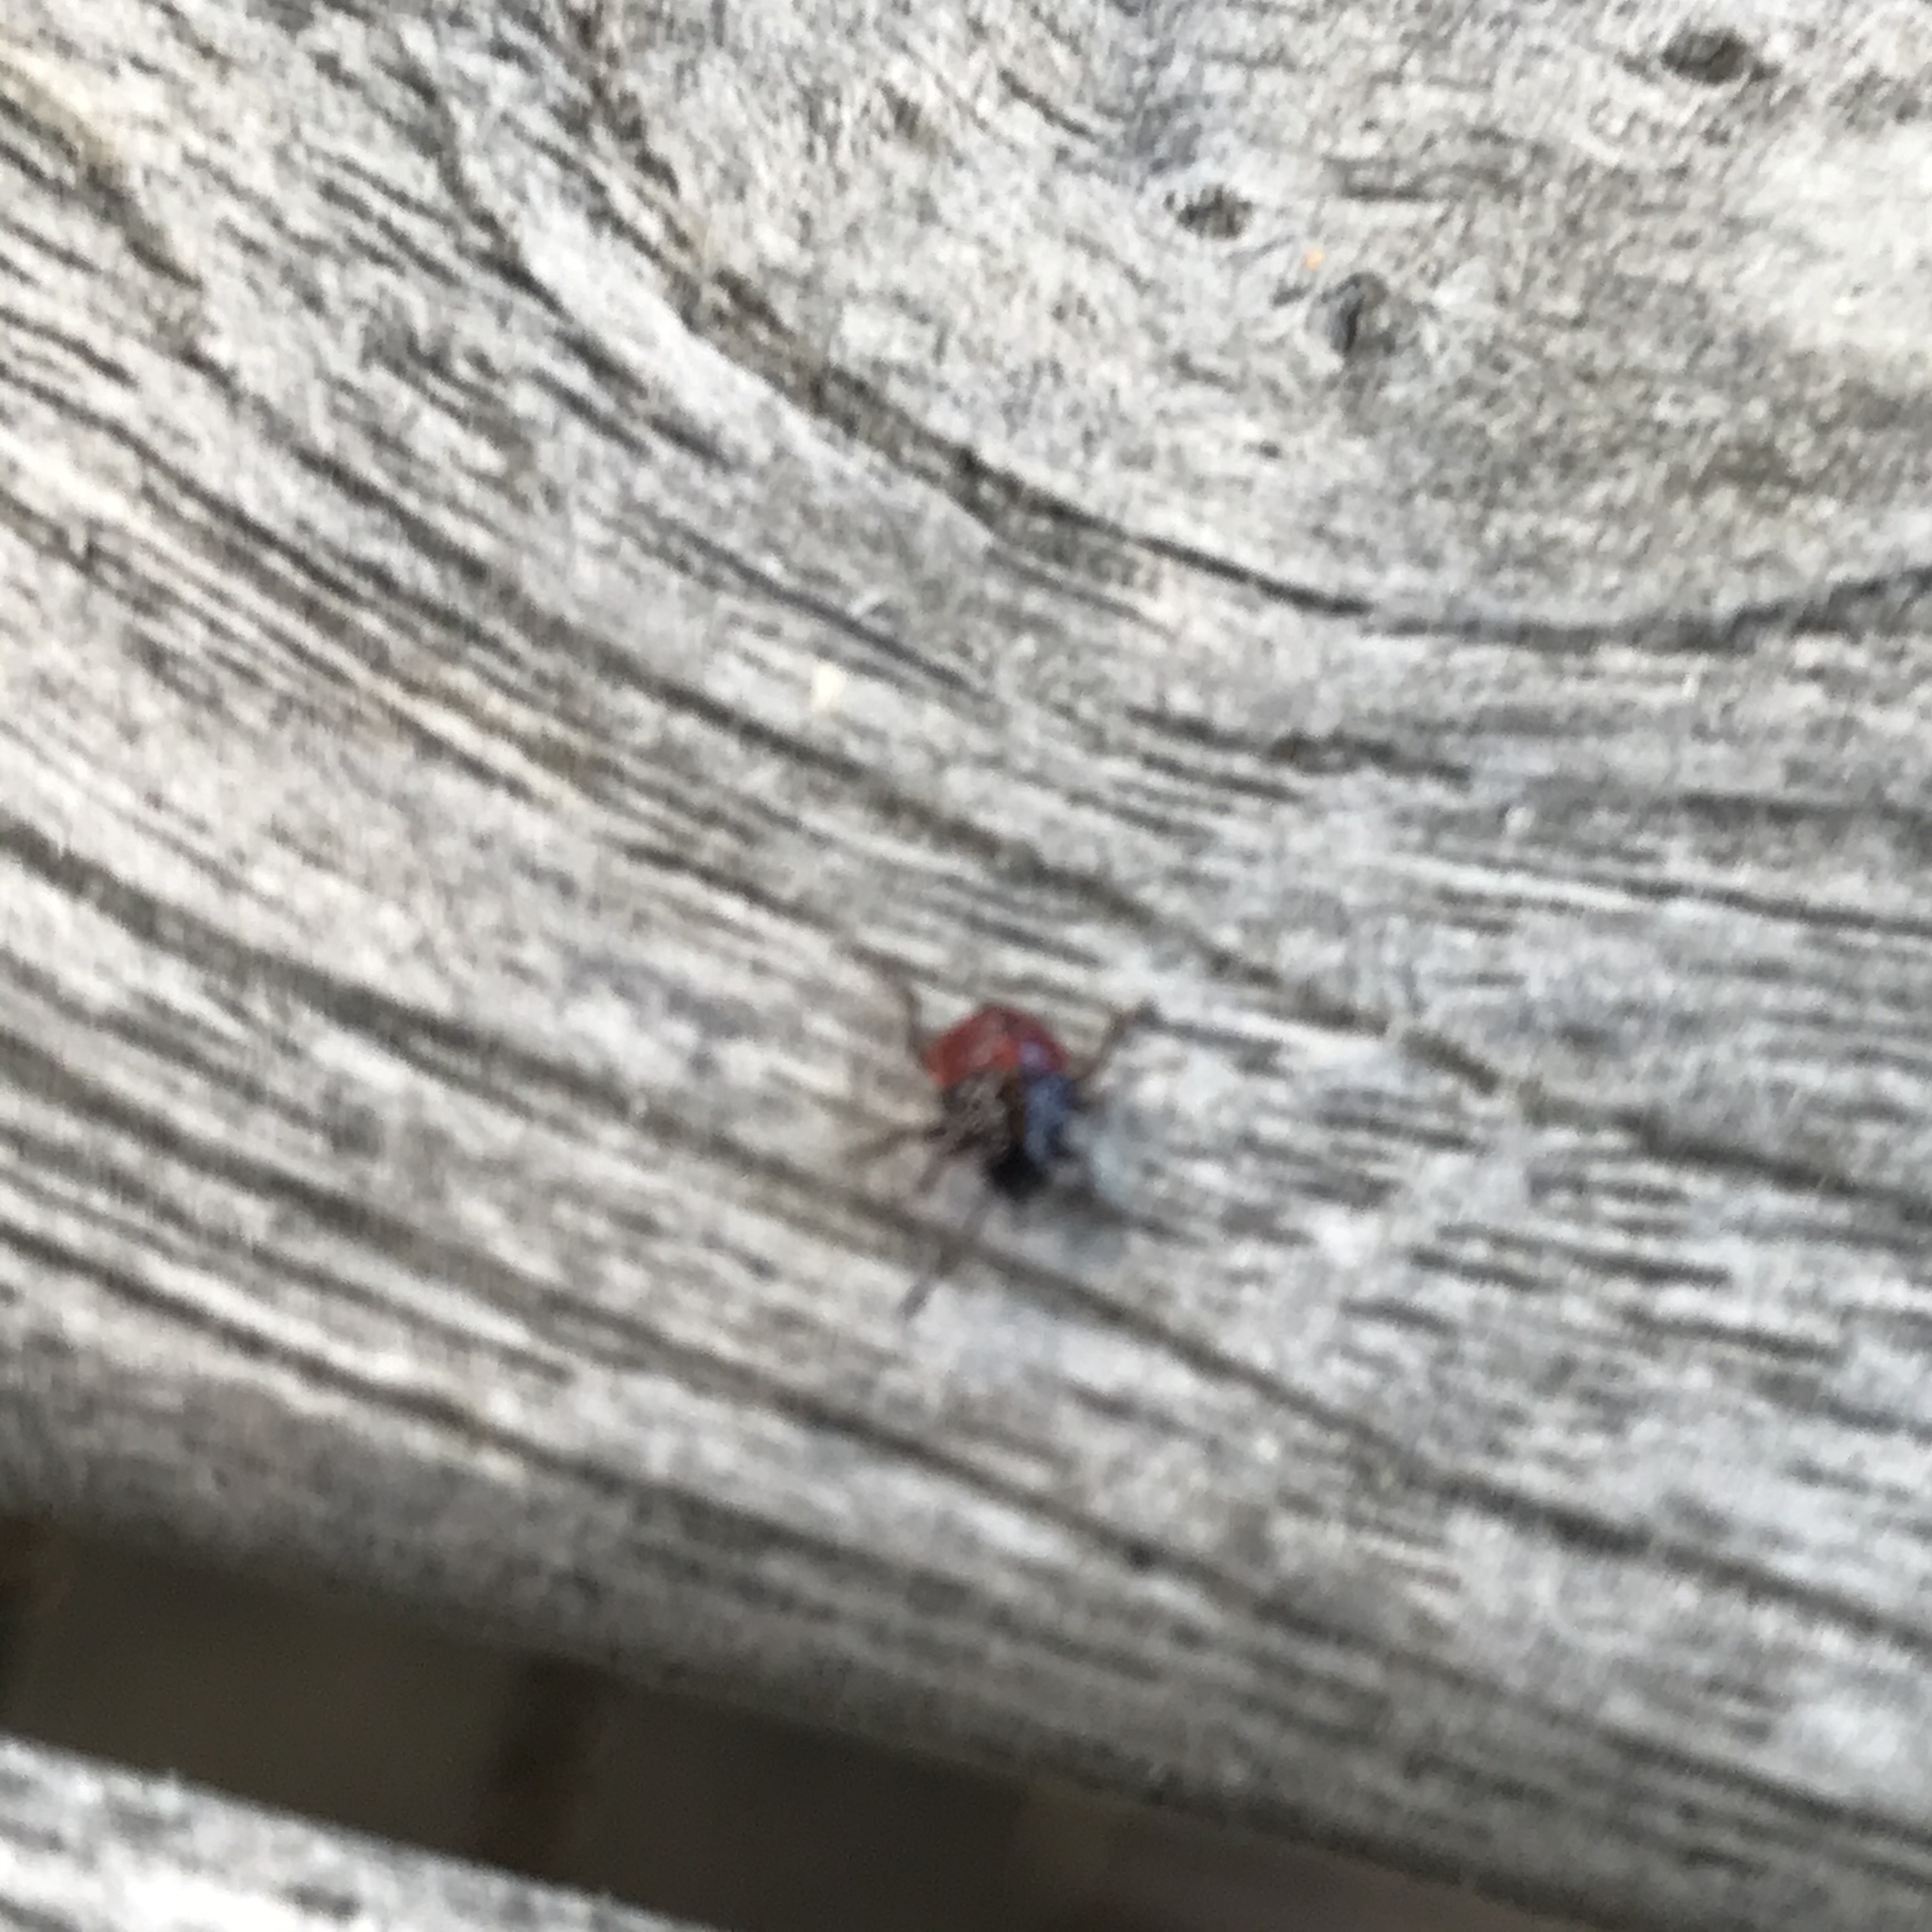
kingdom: Animalia
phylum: Arthropoda
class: Insecta
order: Hemiptera
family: Acanthosomatidae
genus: Acanthosoma
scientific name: Acanthosoma haemorrhoidale
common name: Hawthorn shieldbug
